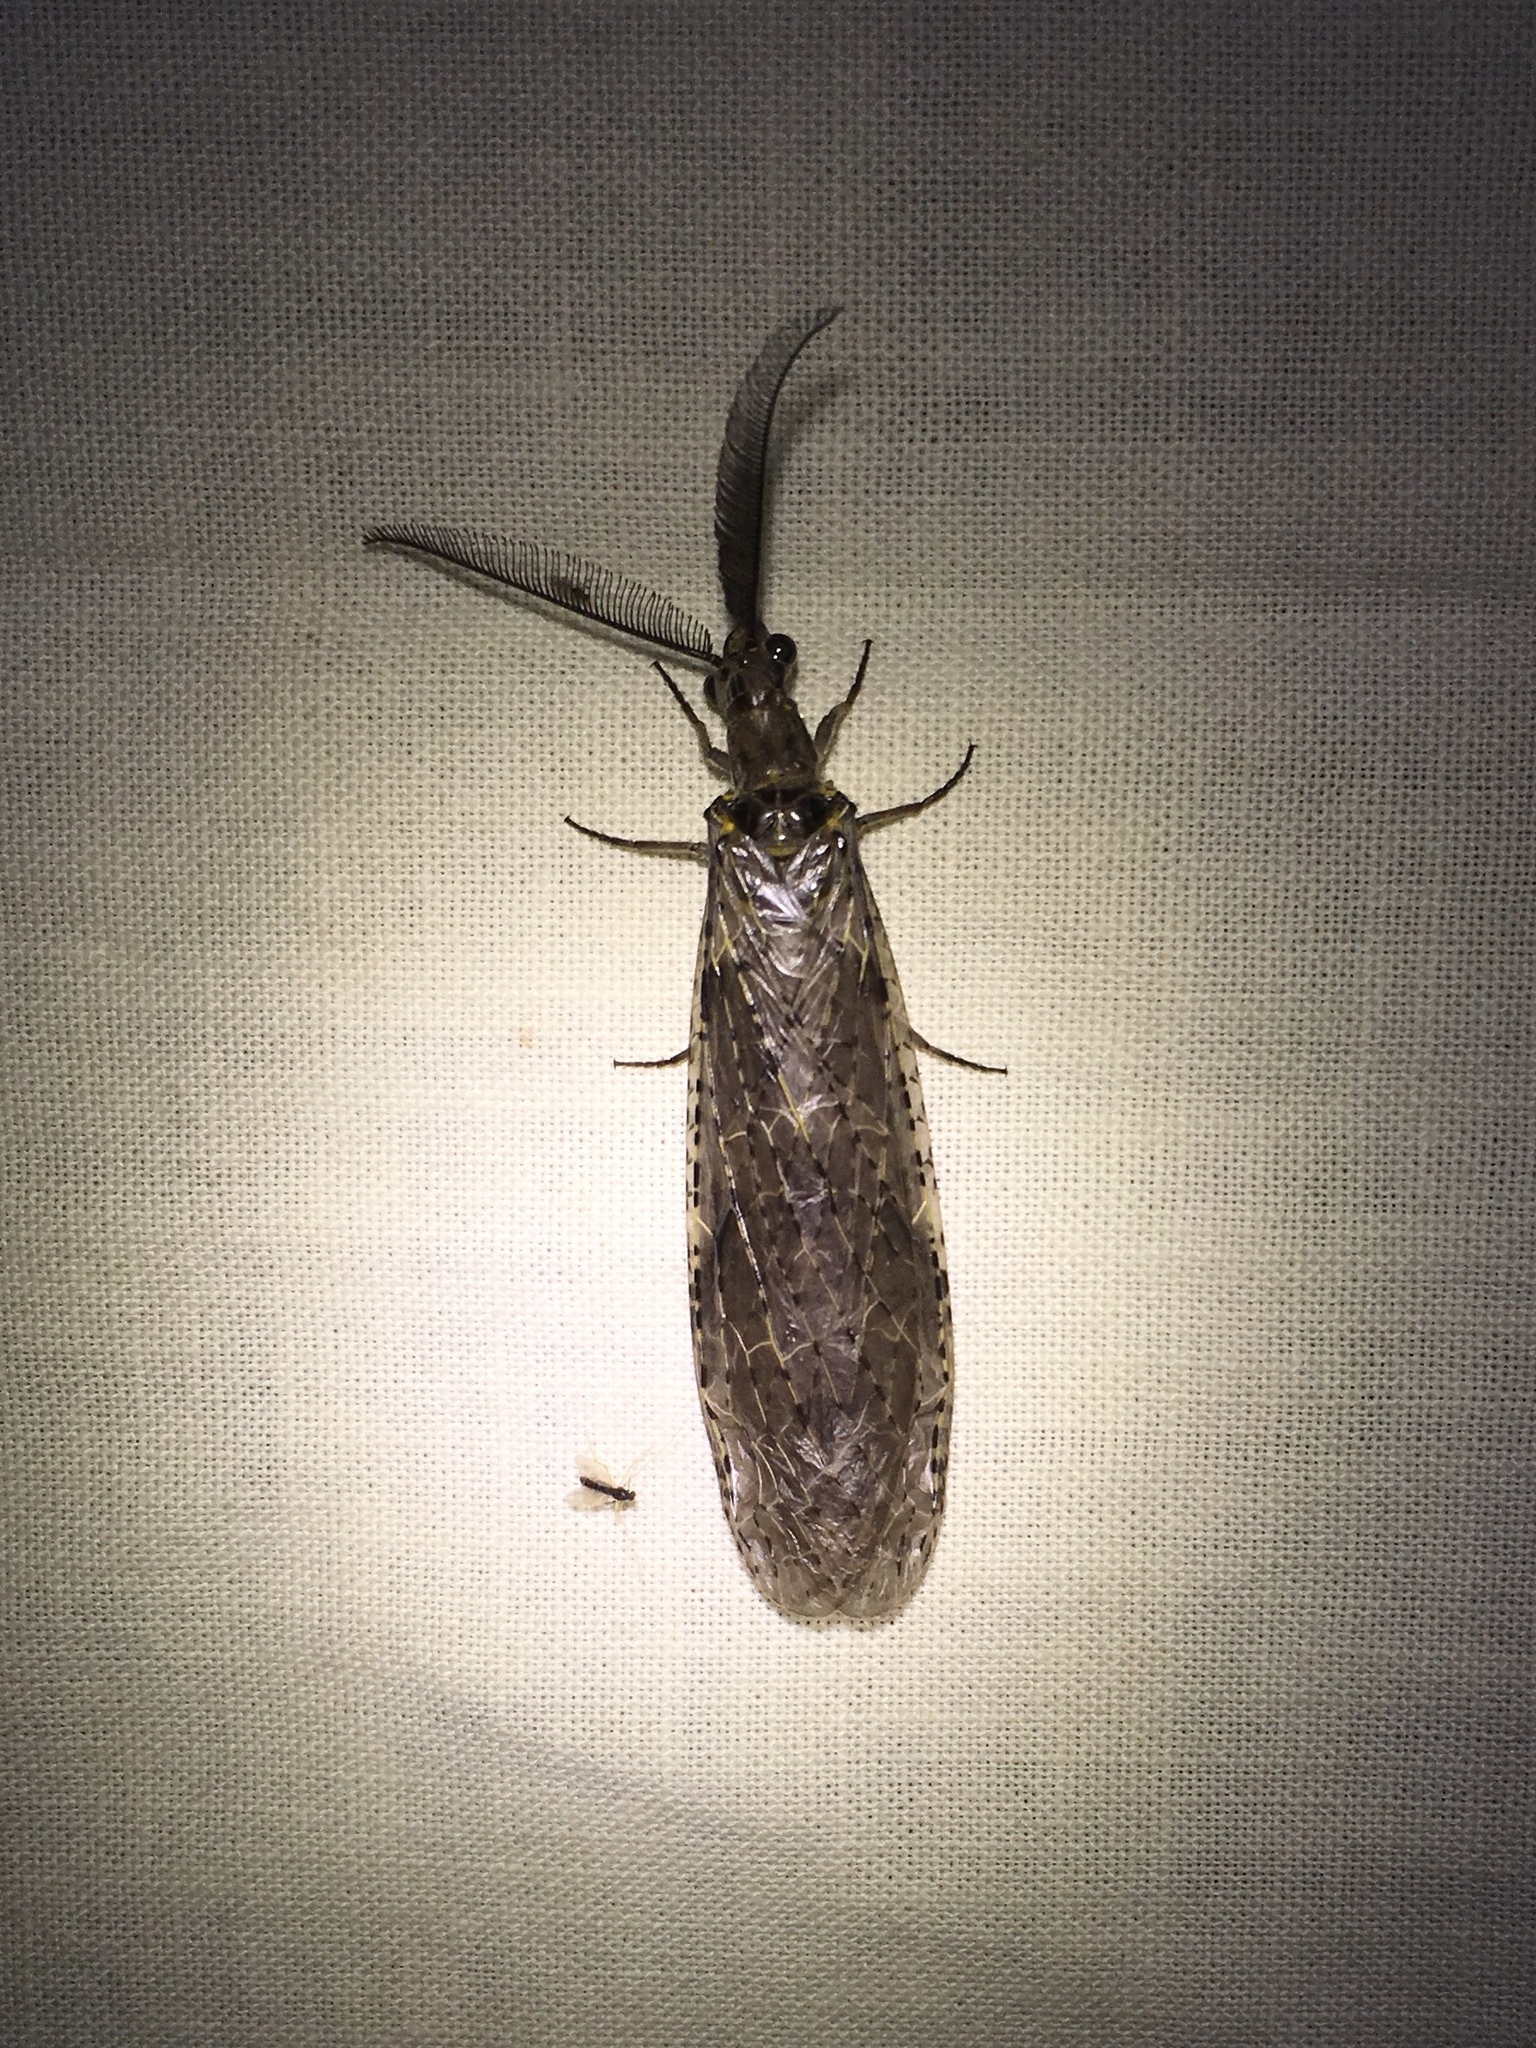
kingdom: Animalia
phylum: Arthropoda
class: Insecta
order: Megaloptera
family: Corydalidae
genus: Chauliodes
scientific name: Chauliodes rastricornis
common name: Spring fishfly
